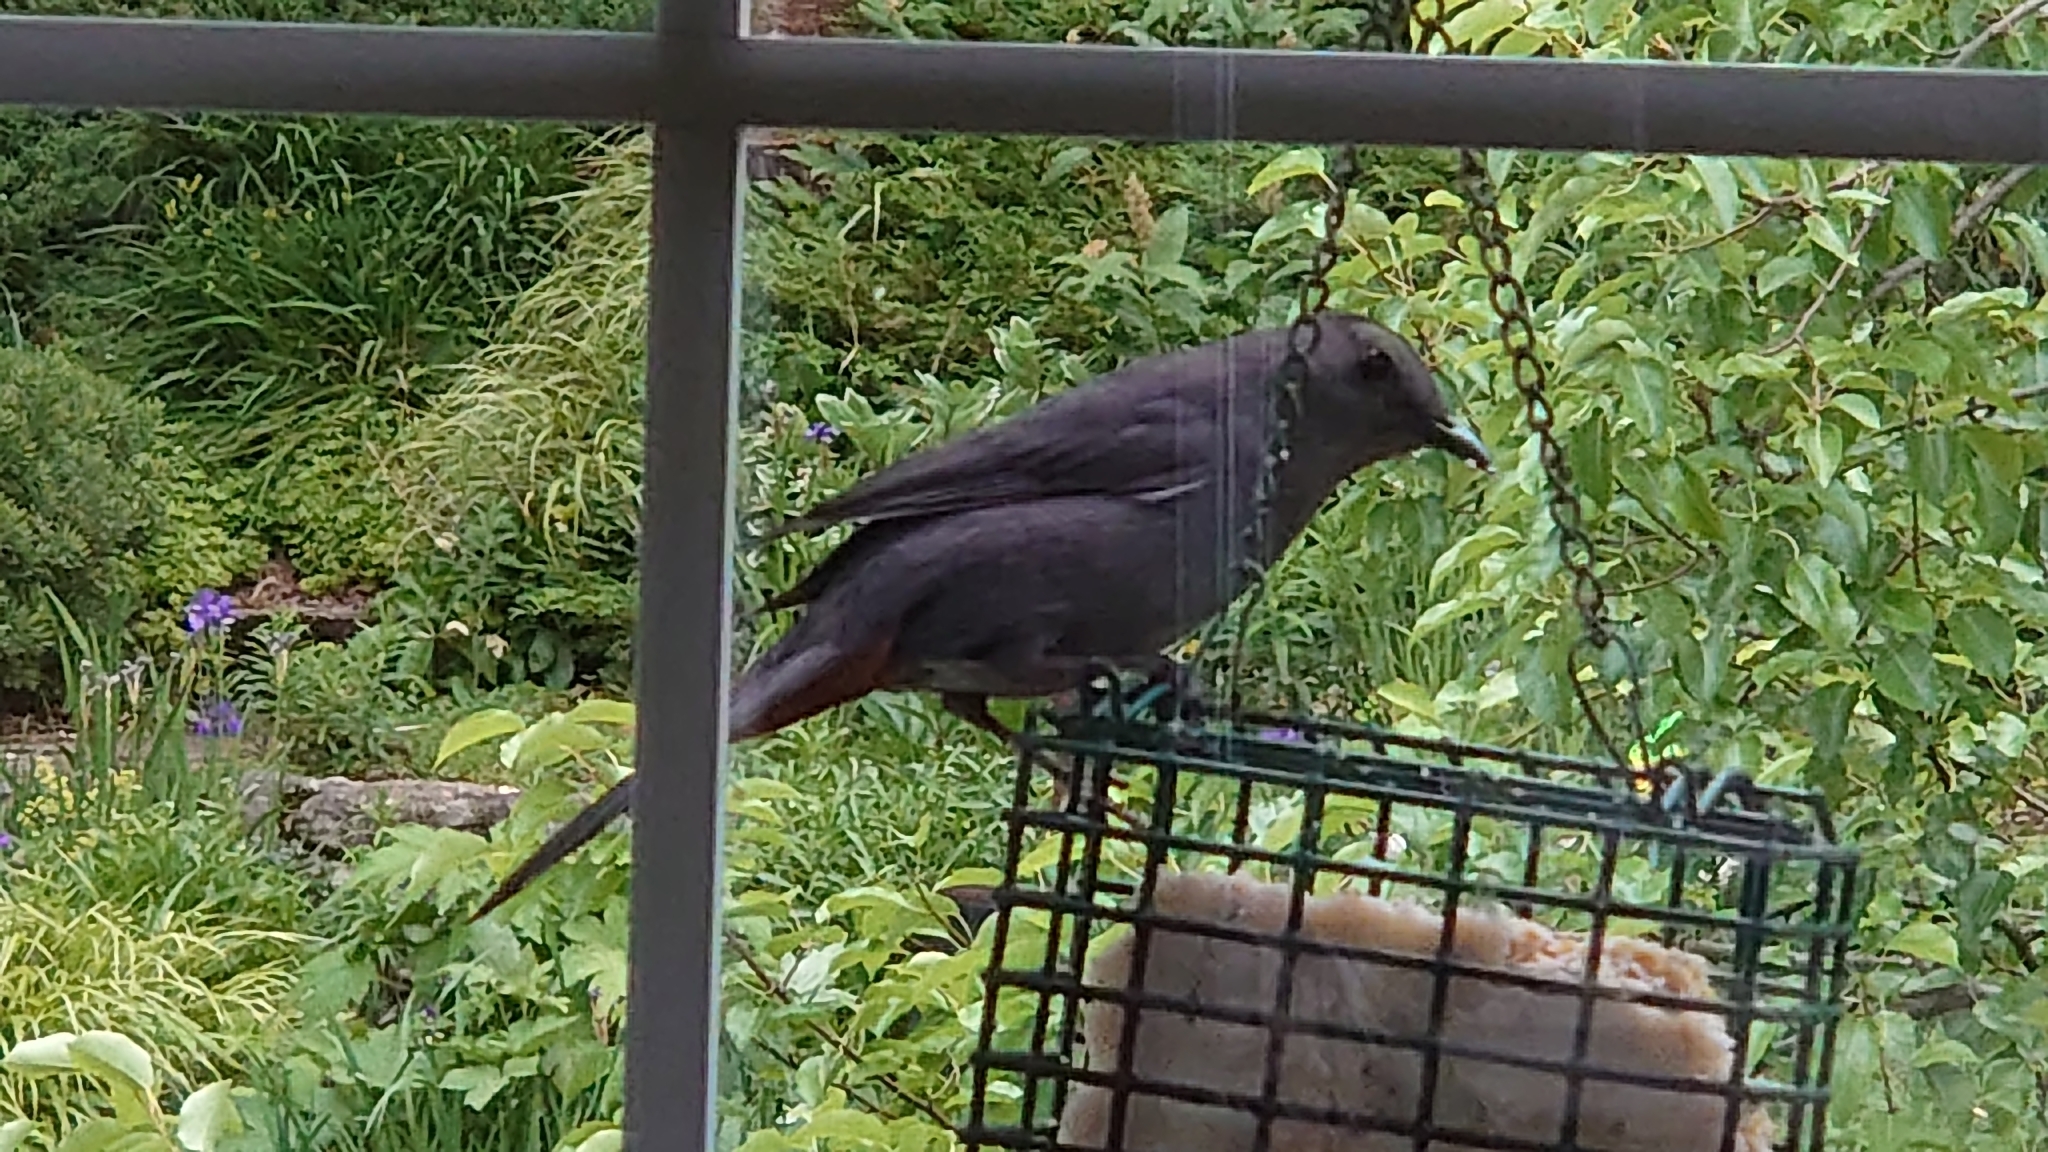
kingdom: Animalia
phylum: Chordata
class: Aves
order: Passeriformes
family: Mimidae
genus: Dumetella
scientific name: Dumetella carolinensis
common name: Gray catbird
